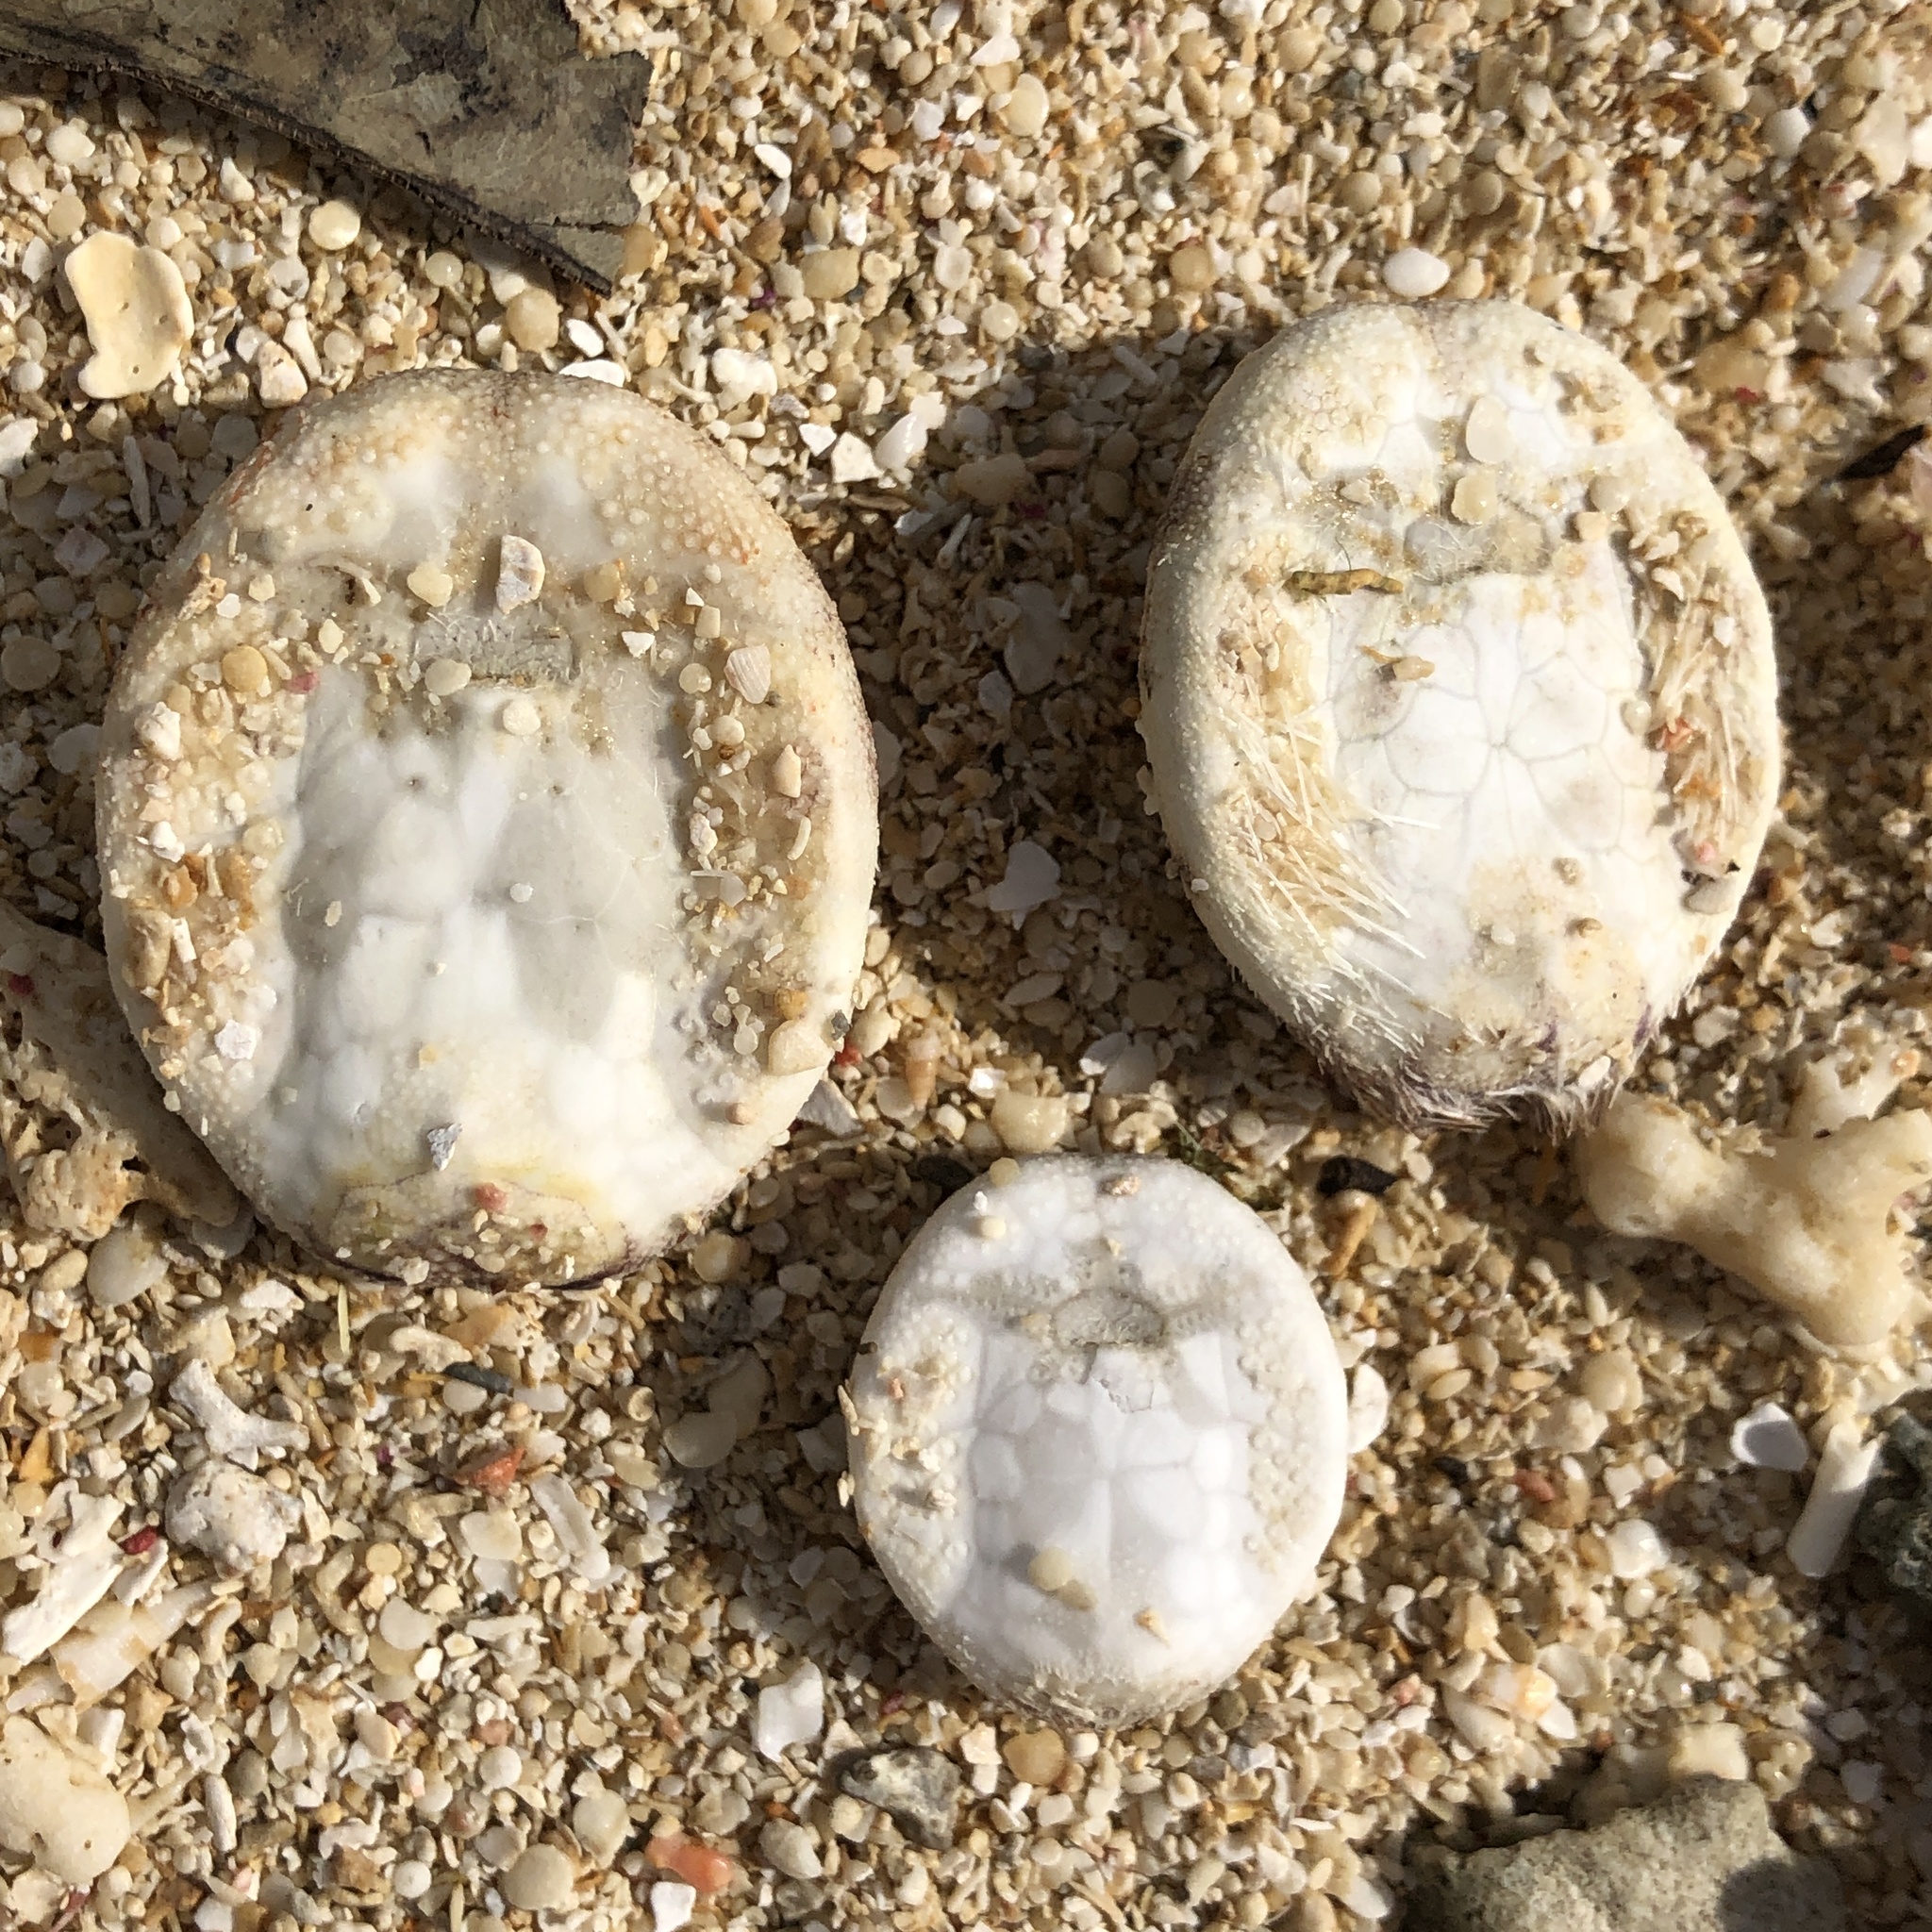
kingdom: Animalia
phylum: Echinodermata
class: Echinoidea
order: Spatangoida
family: Maretiidae
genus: Maretia
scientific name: Maretia planulata
